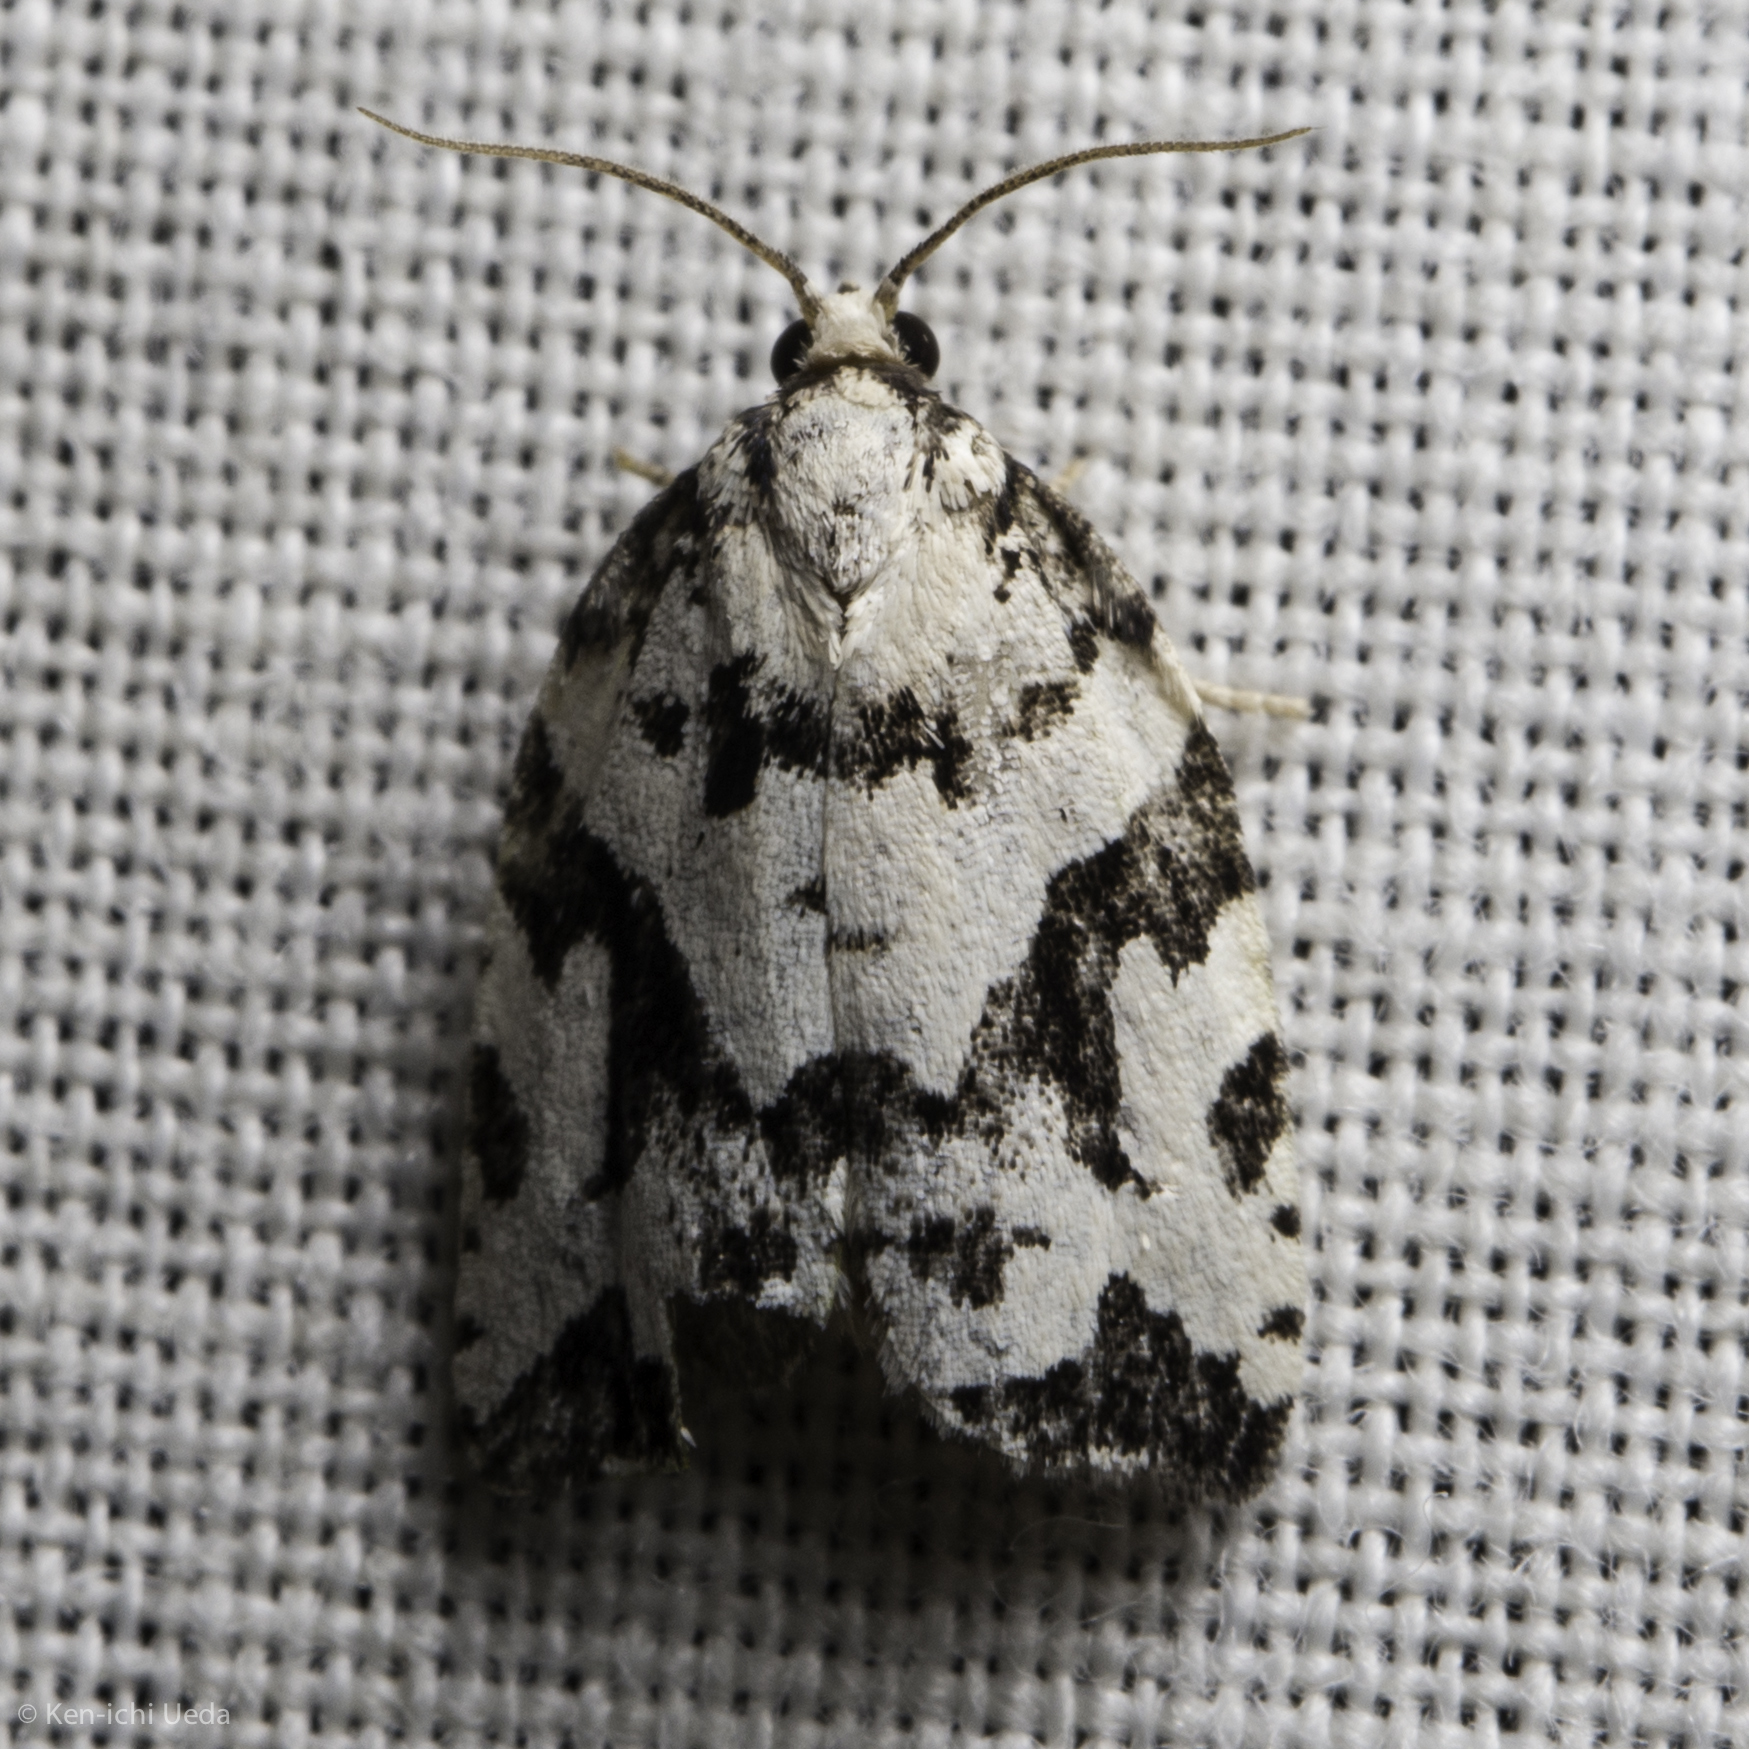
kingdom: Animalia
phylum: Arthropoda
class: Insecta
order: Lepidoptera
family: Tortricidae
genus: Archips
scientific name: Archips dissitana
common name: Boldly-marked archips moth
